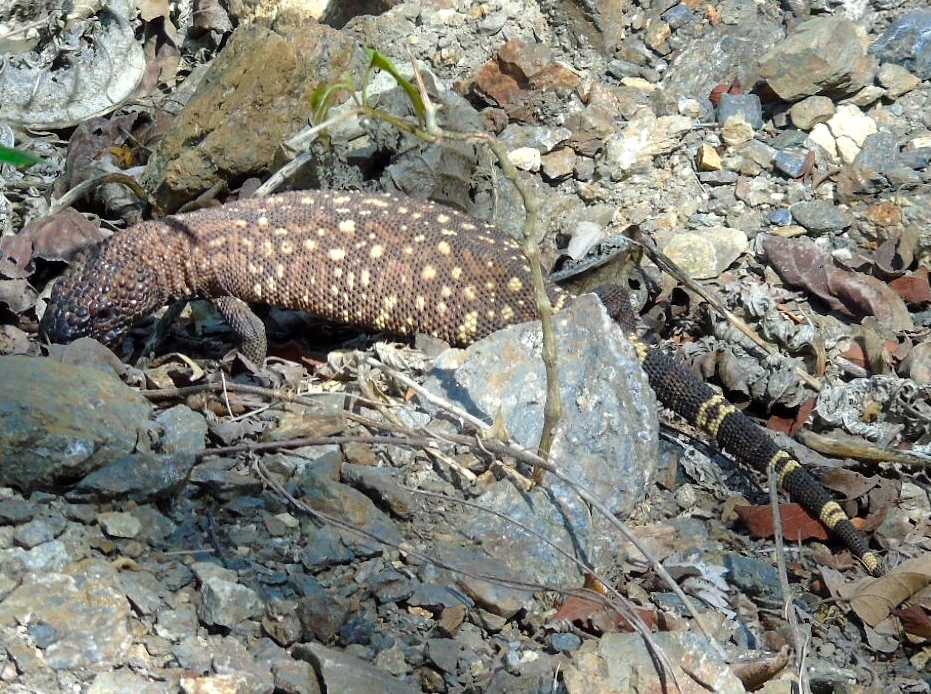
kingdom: Animalia
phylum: Chordata
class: Squamata
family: Helodermatidae
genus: Heloderma
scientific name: Heloderma horridum
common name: Mexican beaded lizard
